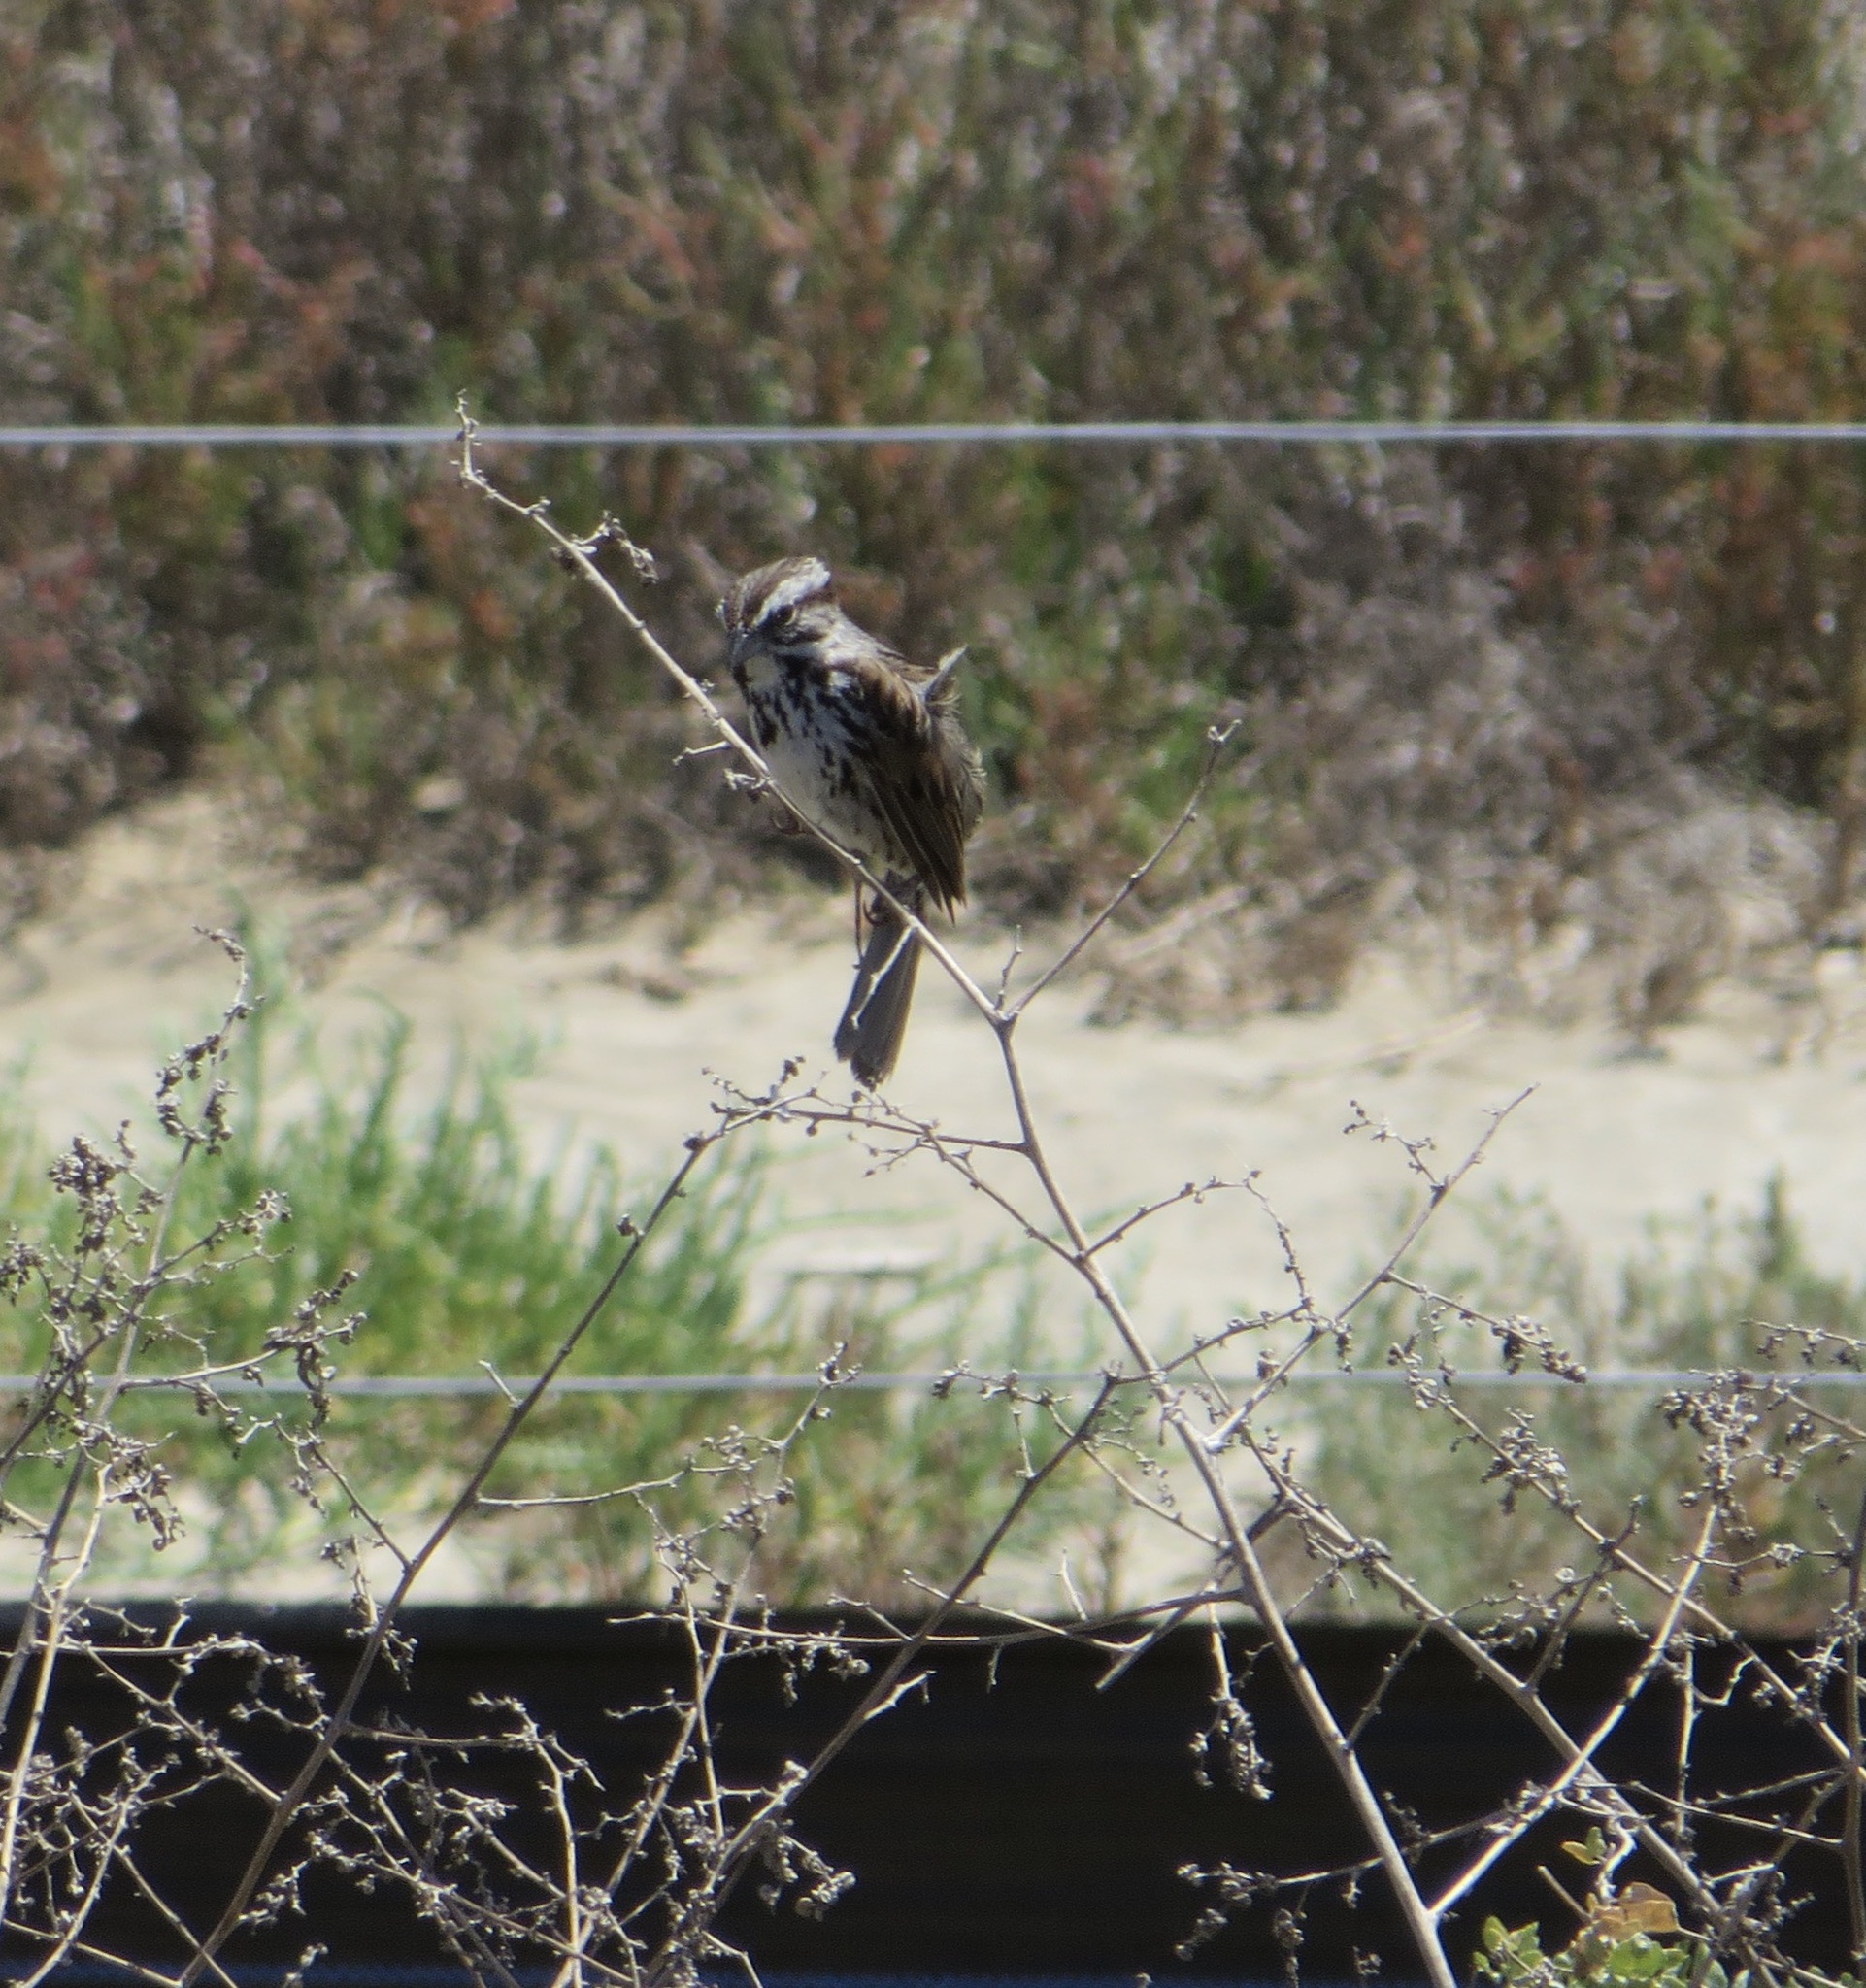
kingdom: Animalia
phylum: Chordata
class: Aves
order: Passeriformes
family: Passerellidae
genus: Melospiza
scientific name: Melospiza melodia
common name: Song sparrow
